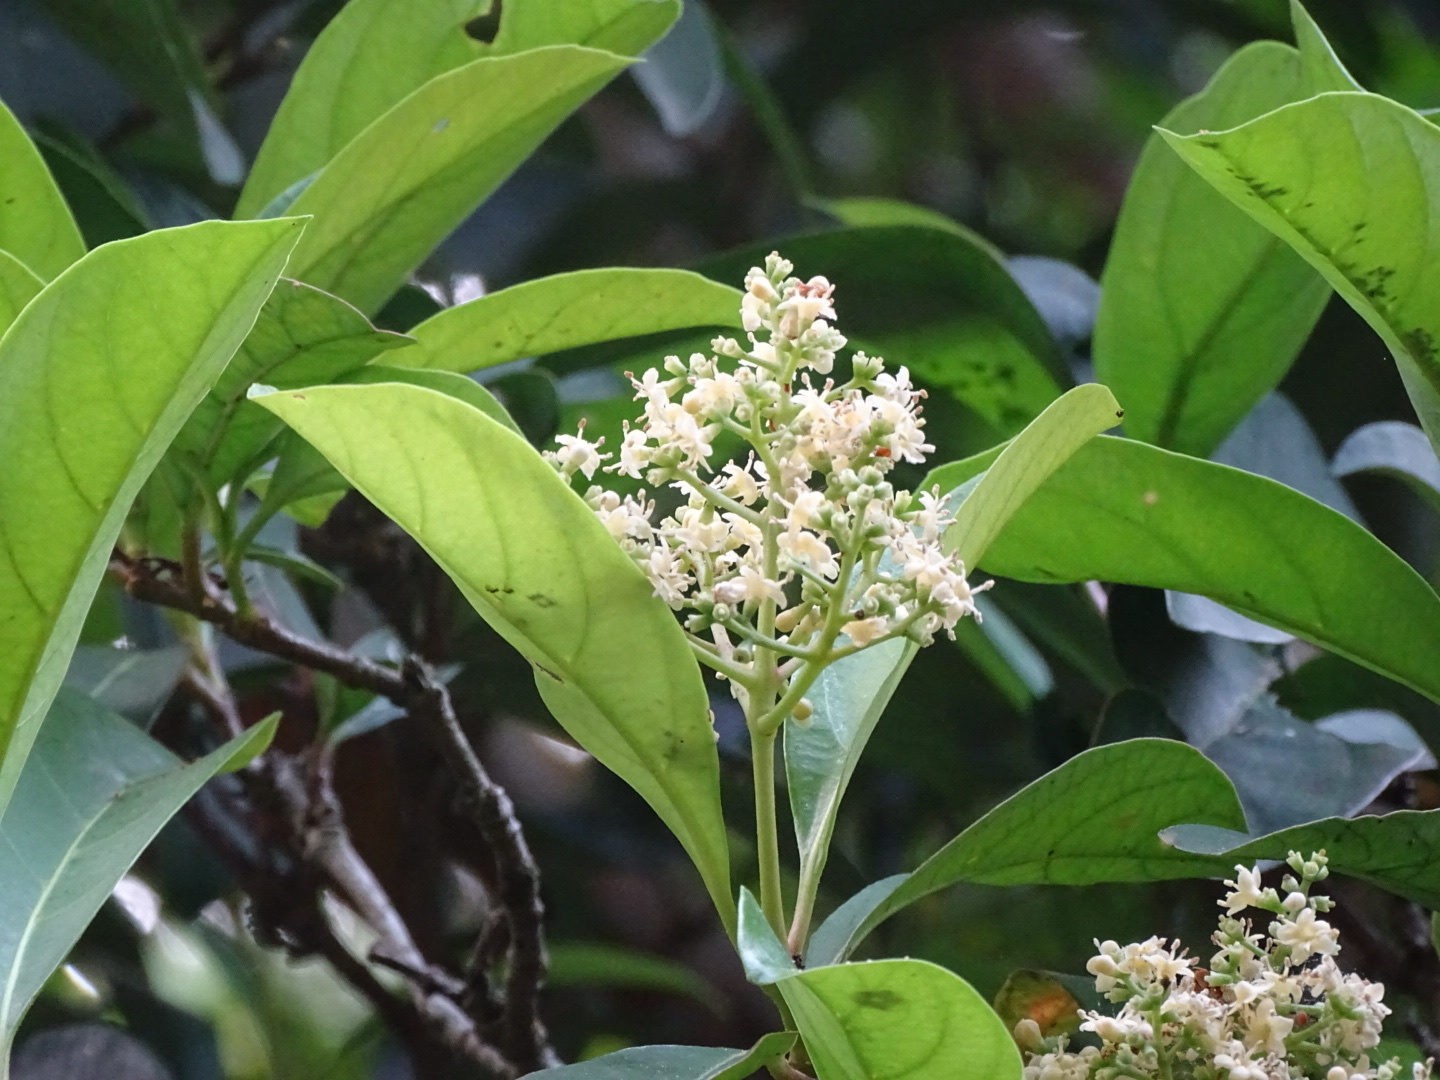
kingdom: Plantae
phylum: Tracheophyta
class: Magnoliopsida
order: Dipsacales
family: Viburnaceae
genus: Viburnum
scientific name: Viburnum odoratissimum
